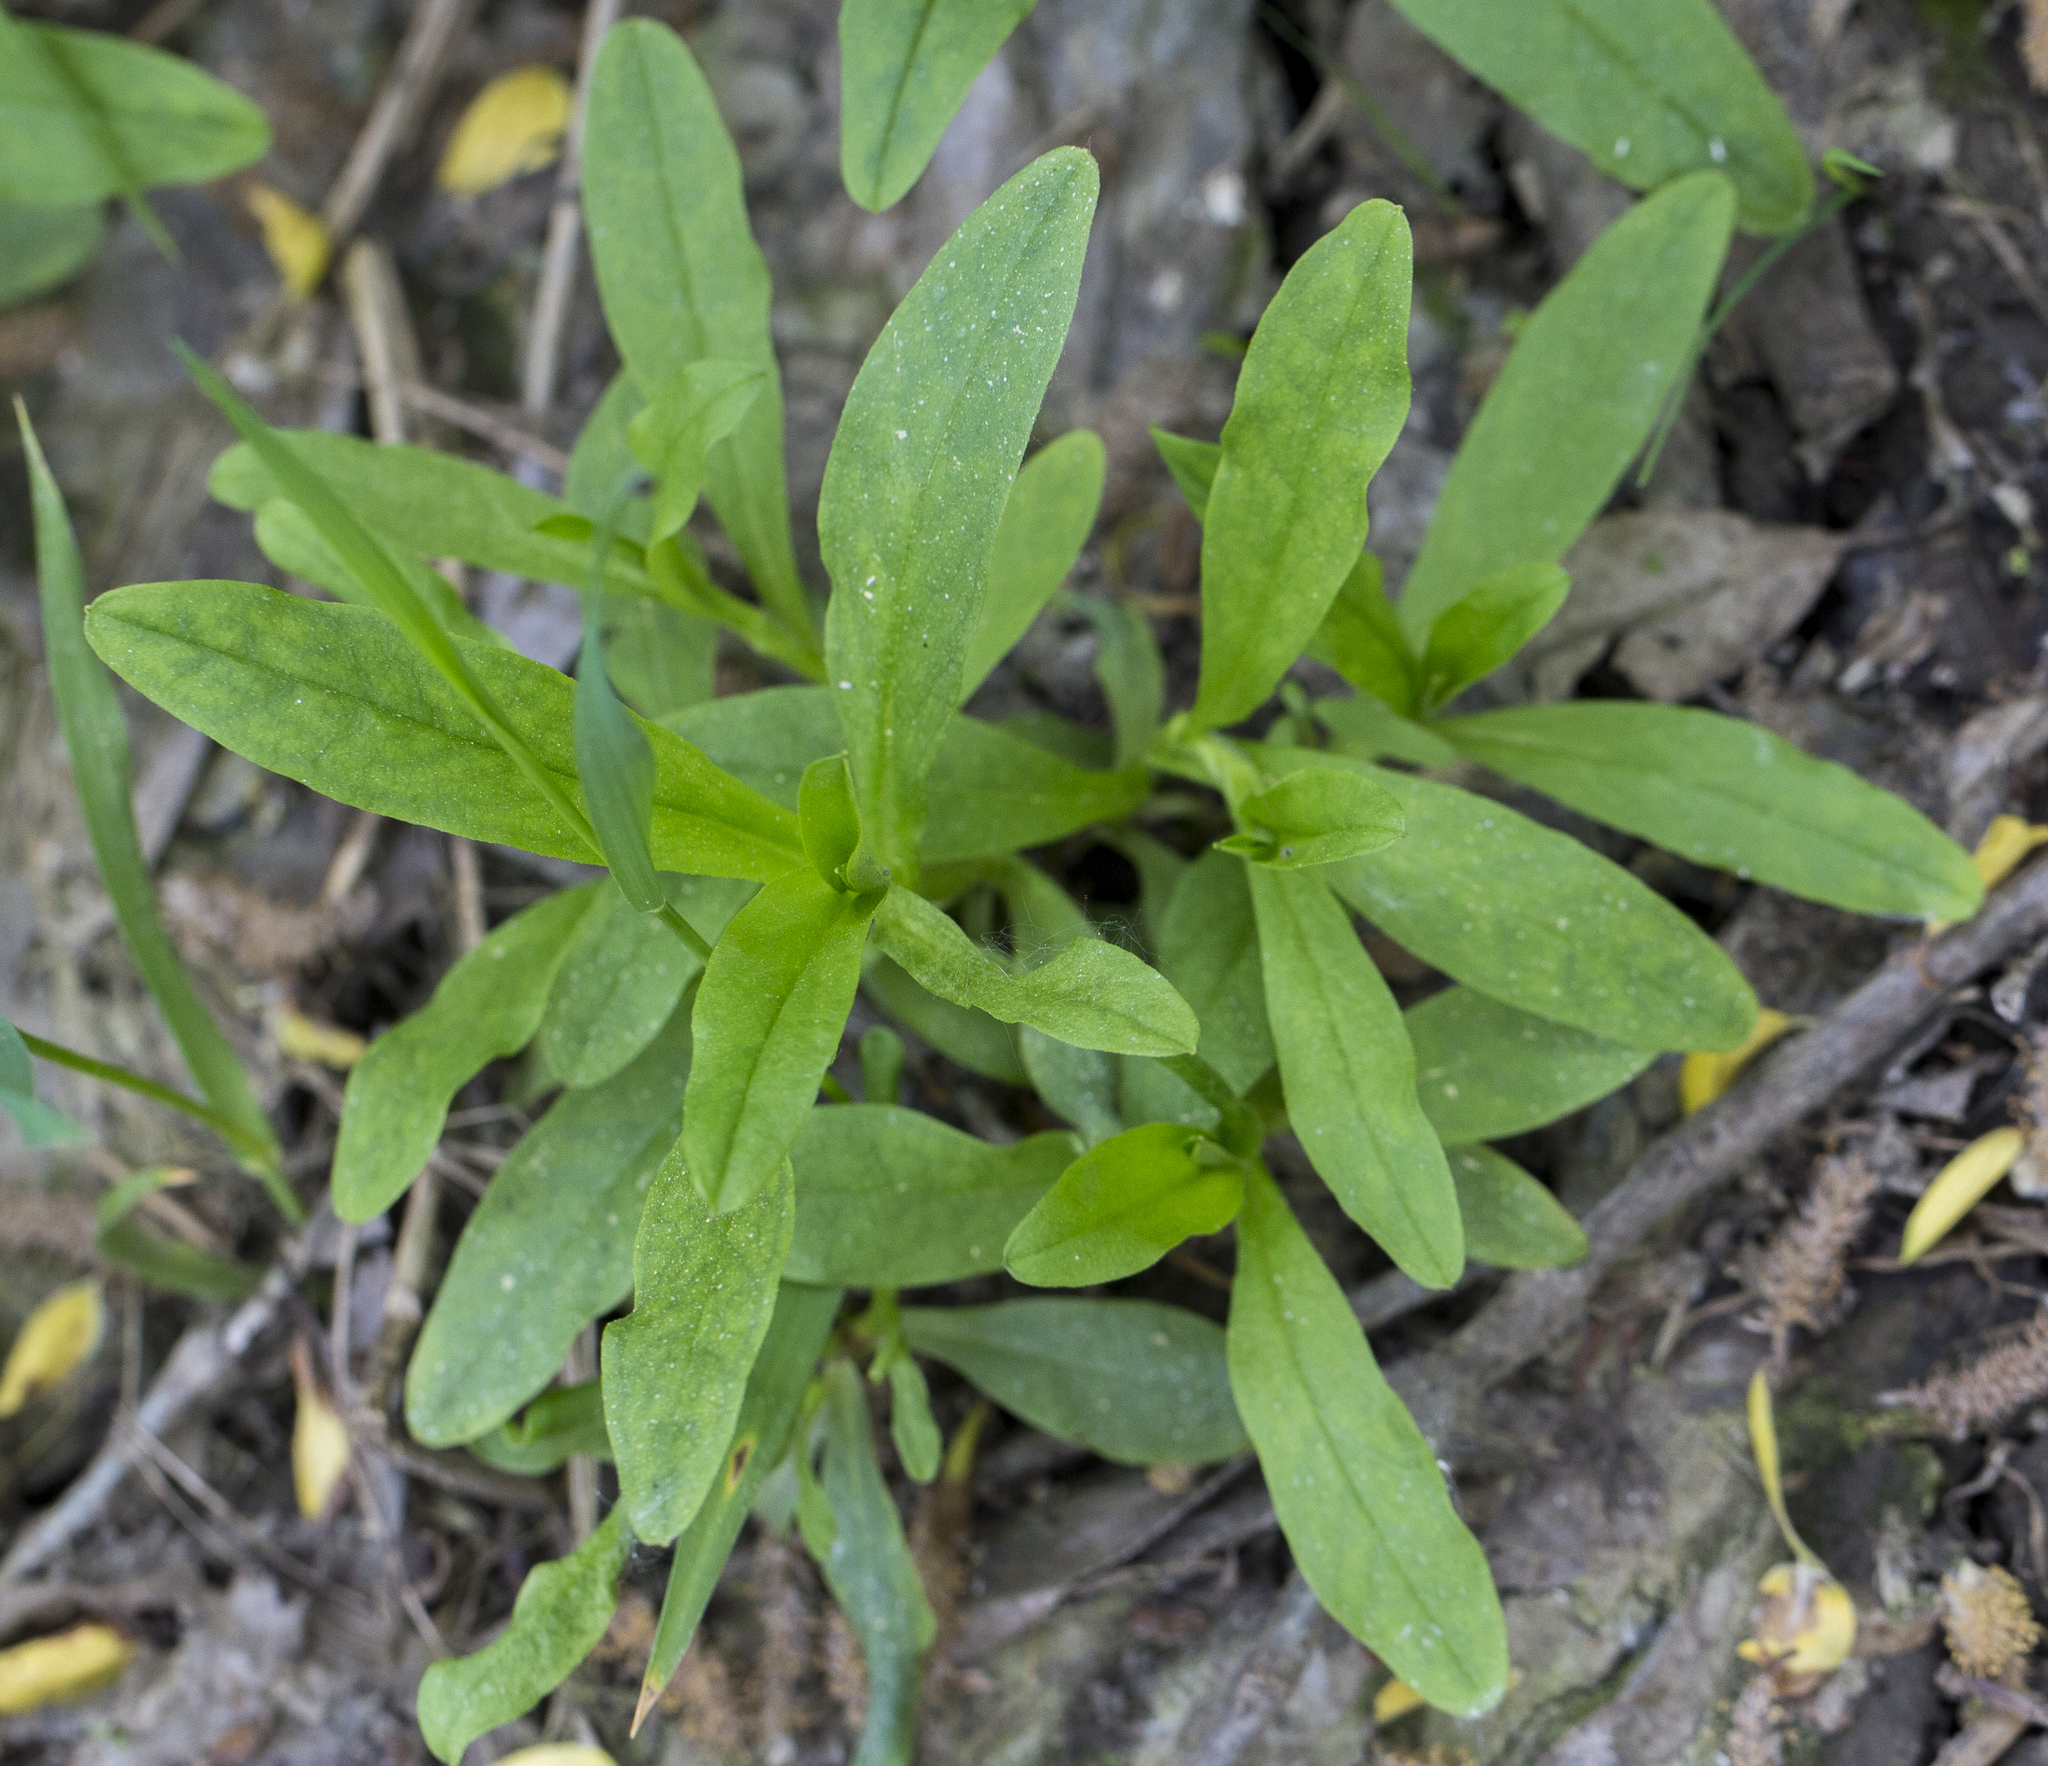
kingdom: Plantae
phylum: Tracheophyta
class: Magnoliopsida
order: Boraginales
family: Boraginaceae
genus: Myosotis
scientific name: Myosotis scorpioides
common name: Water forget-me-not
